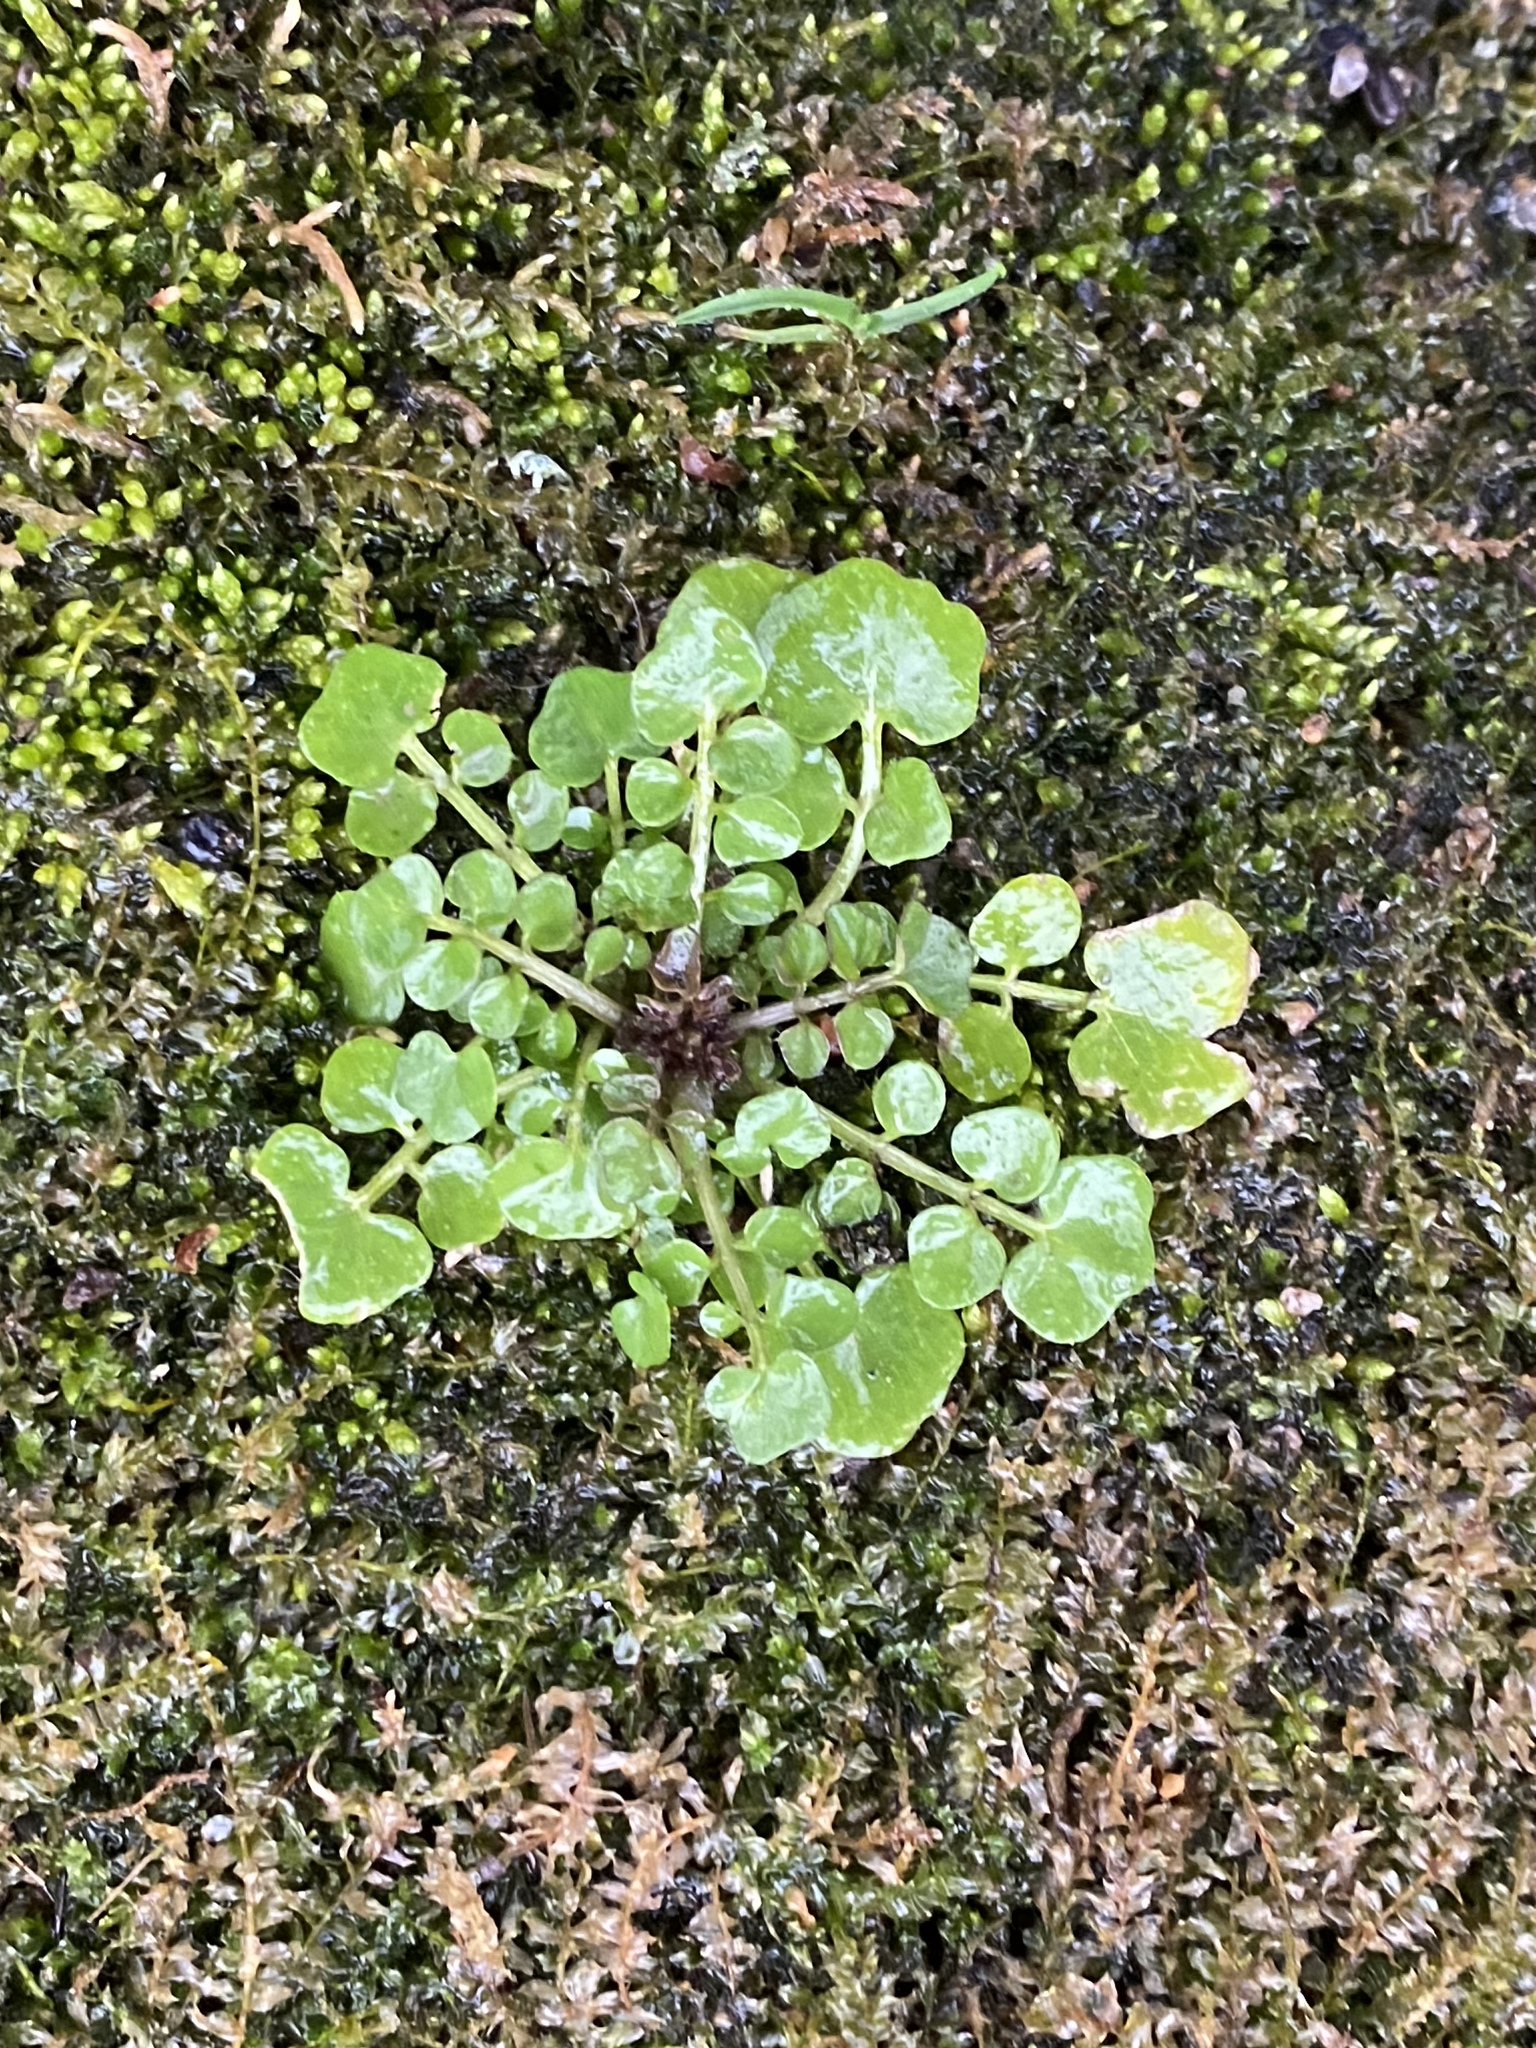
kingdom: Plantae
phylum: Tracheophyta
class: Magnoliopsida
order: Brassicales
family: Brassicaceae
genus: Cardamine
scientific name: Cardamine hirsuta
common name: Hairy bittercress
